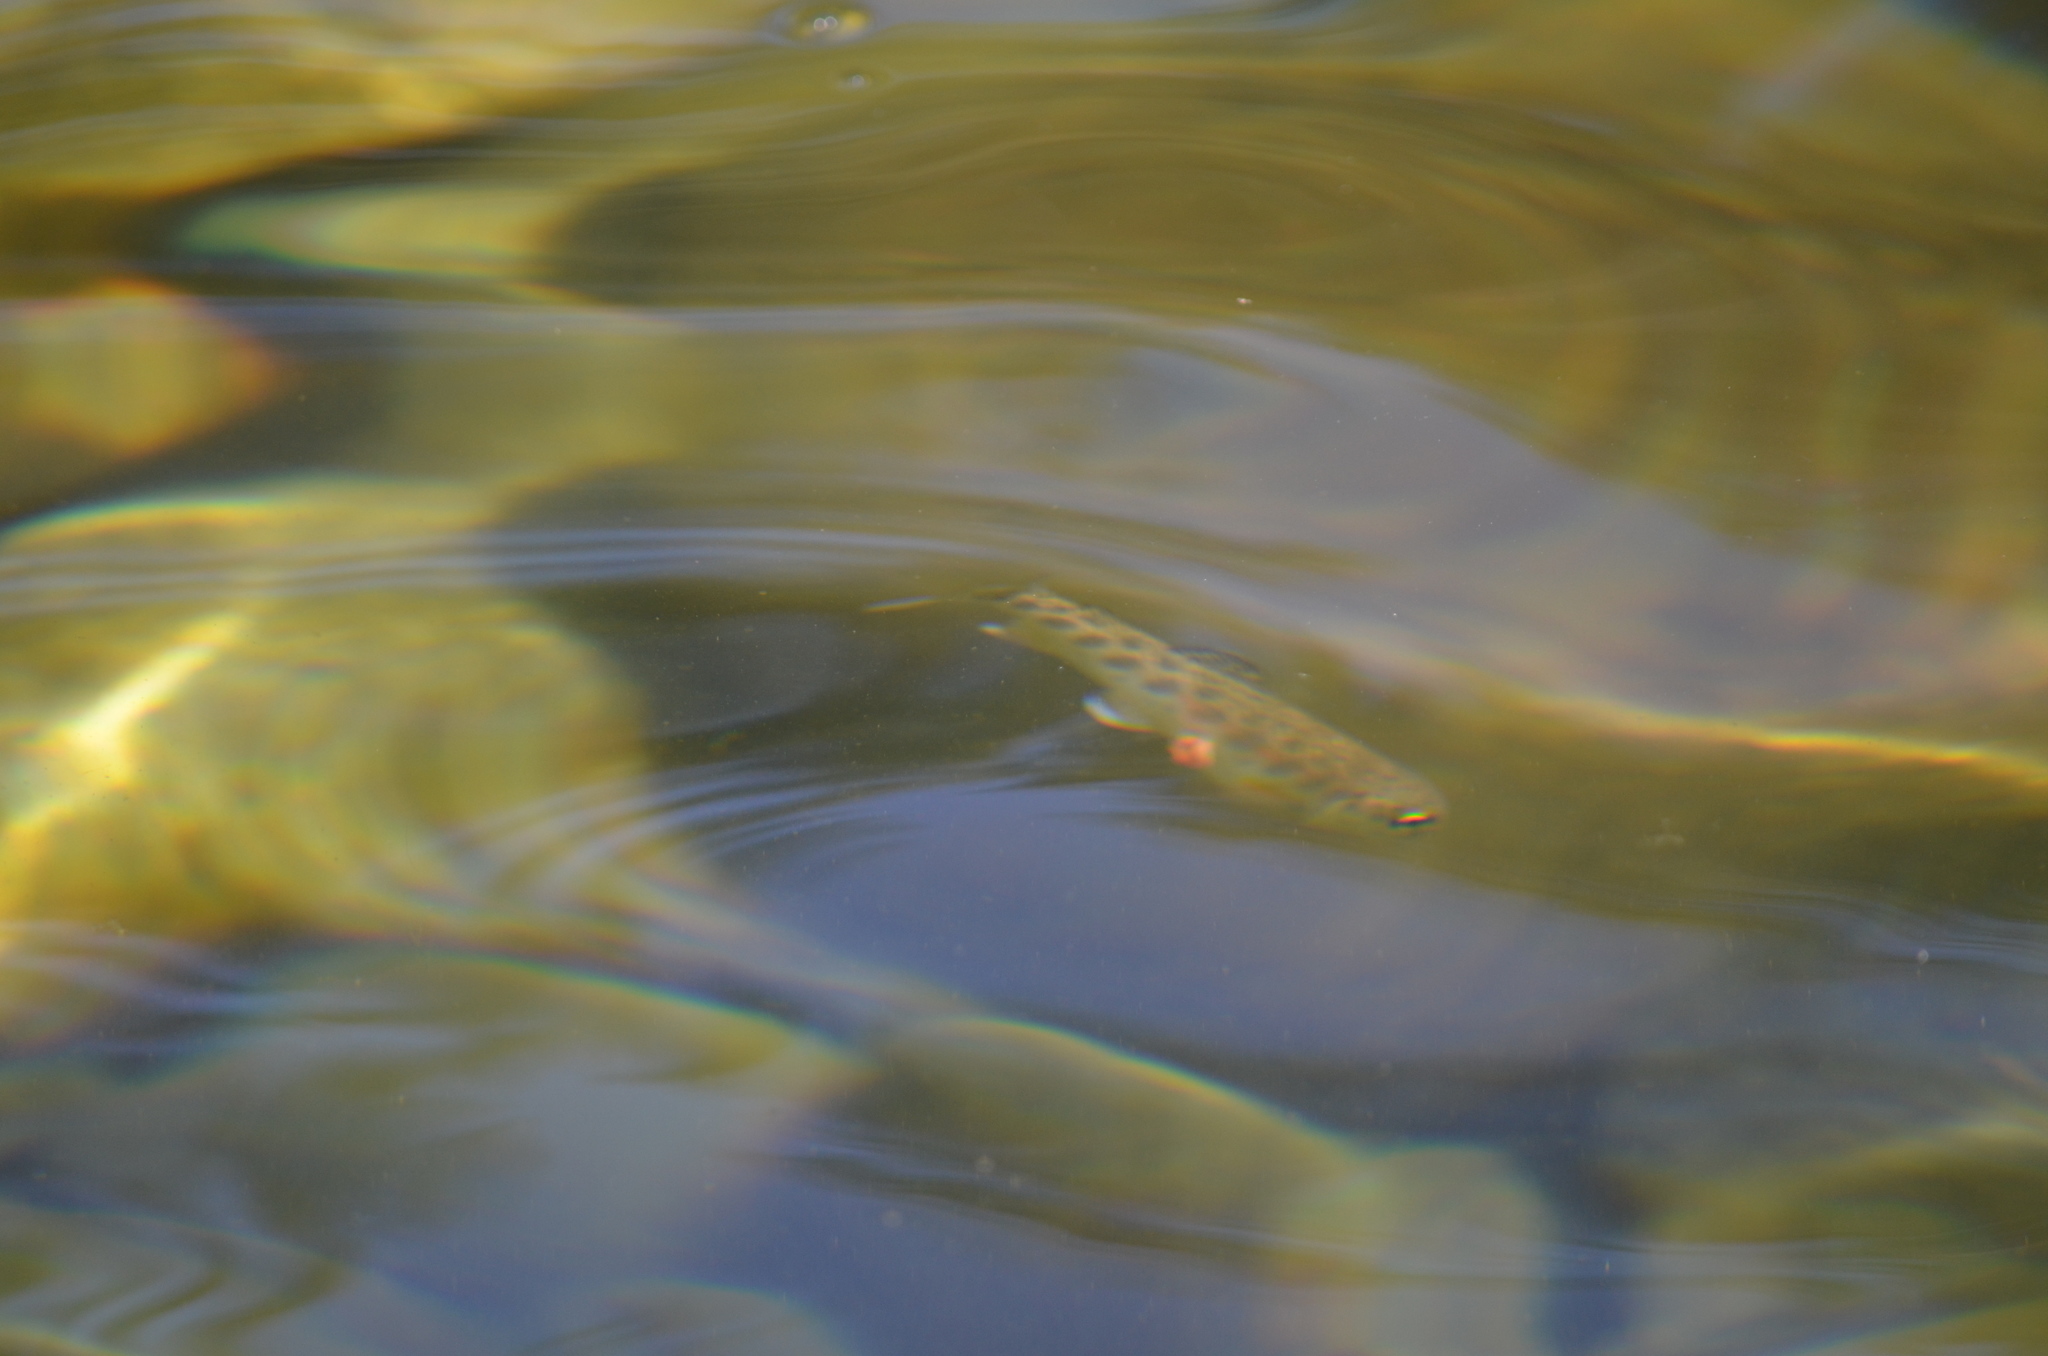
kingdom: Animalia
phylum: Chordata
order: Salmoniformes
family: Salmonidae
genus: Oncorhynchus
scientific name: Oncorhynchus mykiss
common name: Rainbow trout
